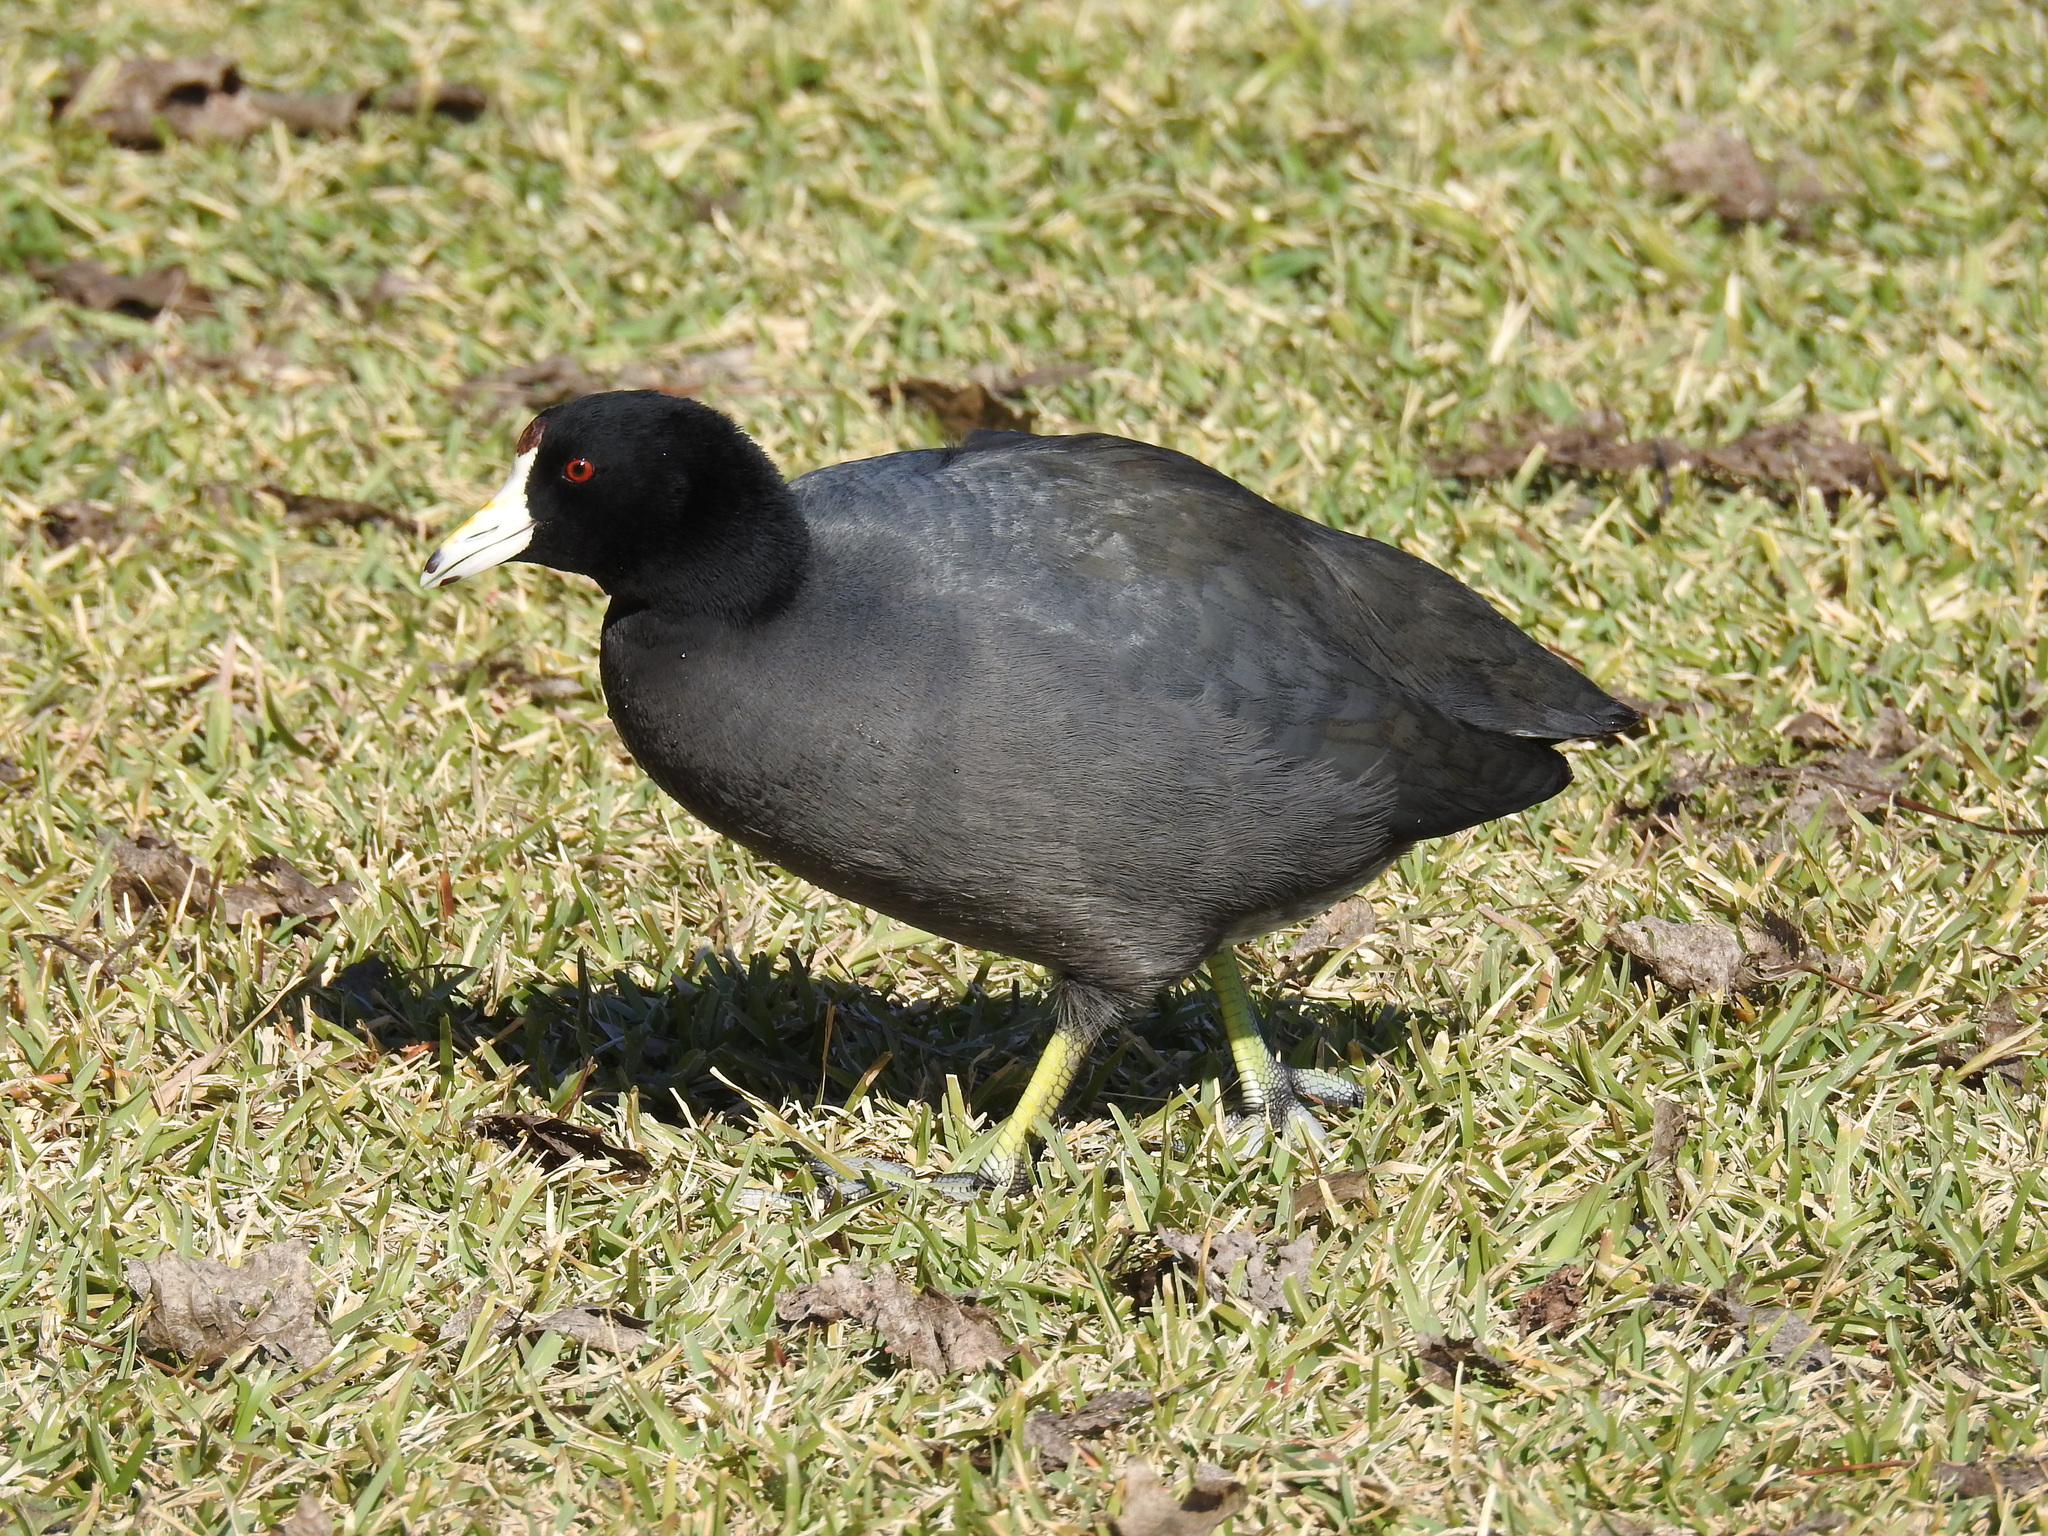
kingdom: Animalia
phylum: Chordata
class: Aves
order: Gruiformes
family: Rallidae
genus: Fulica
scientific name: Fulica americana
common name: American coot
